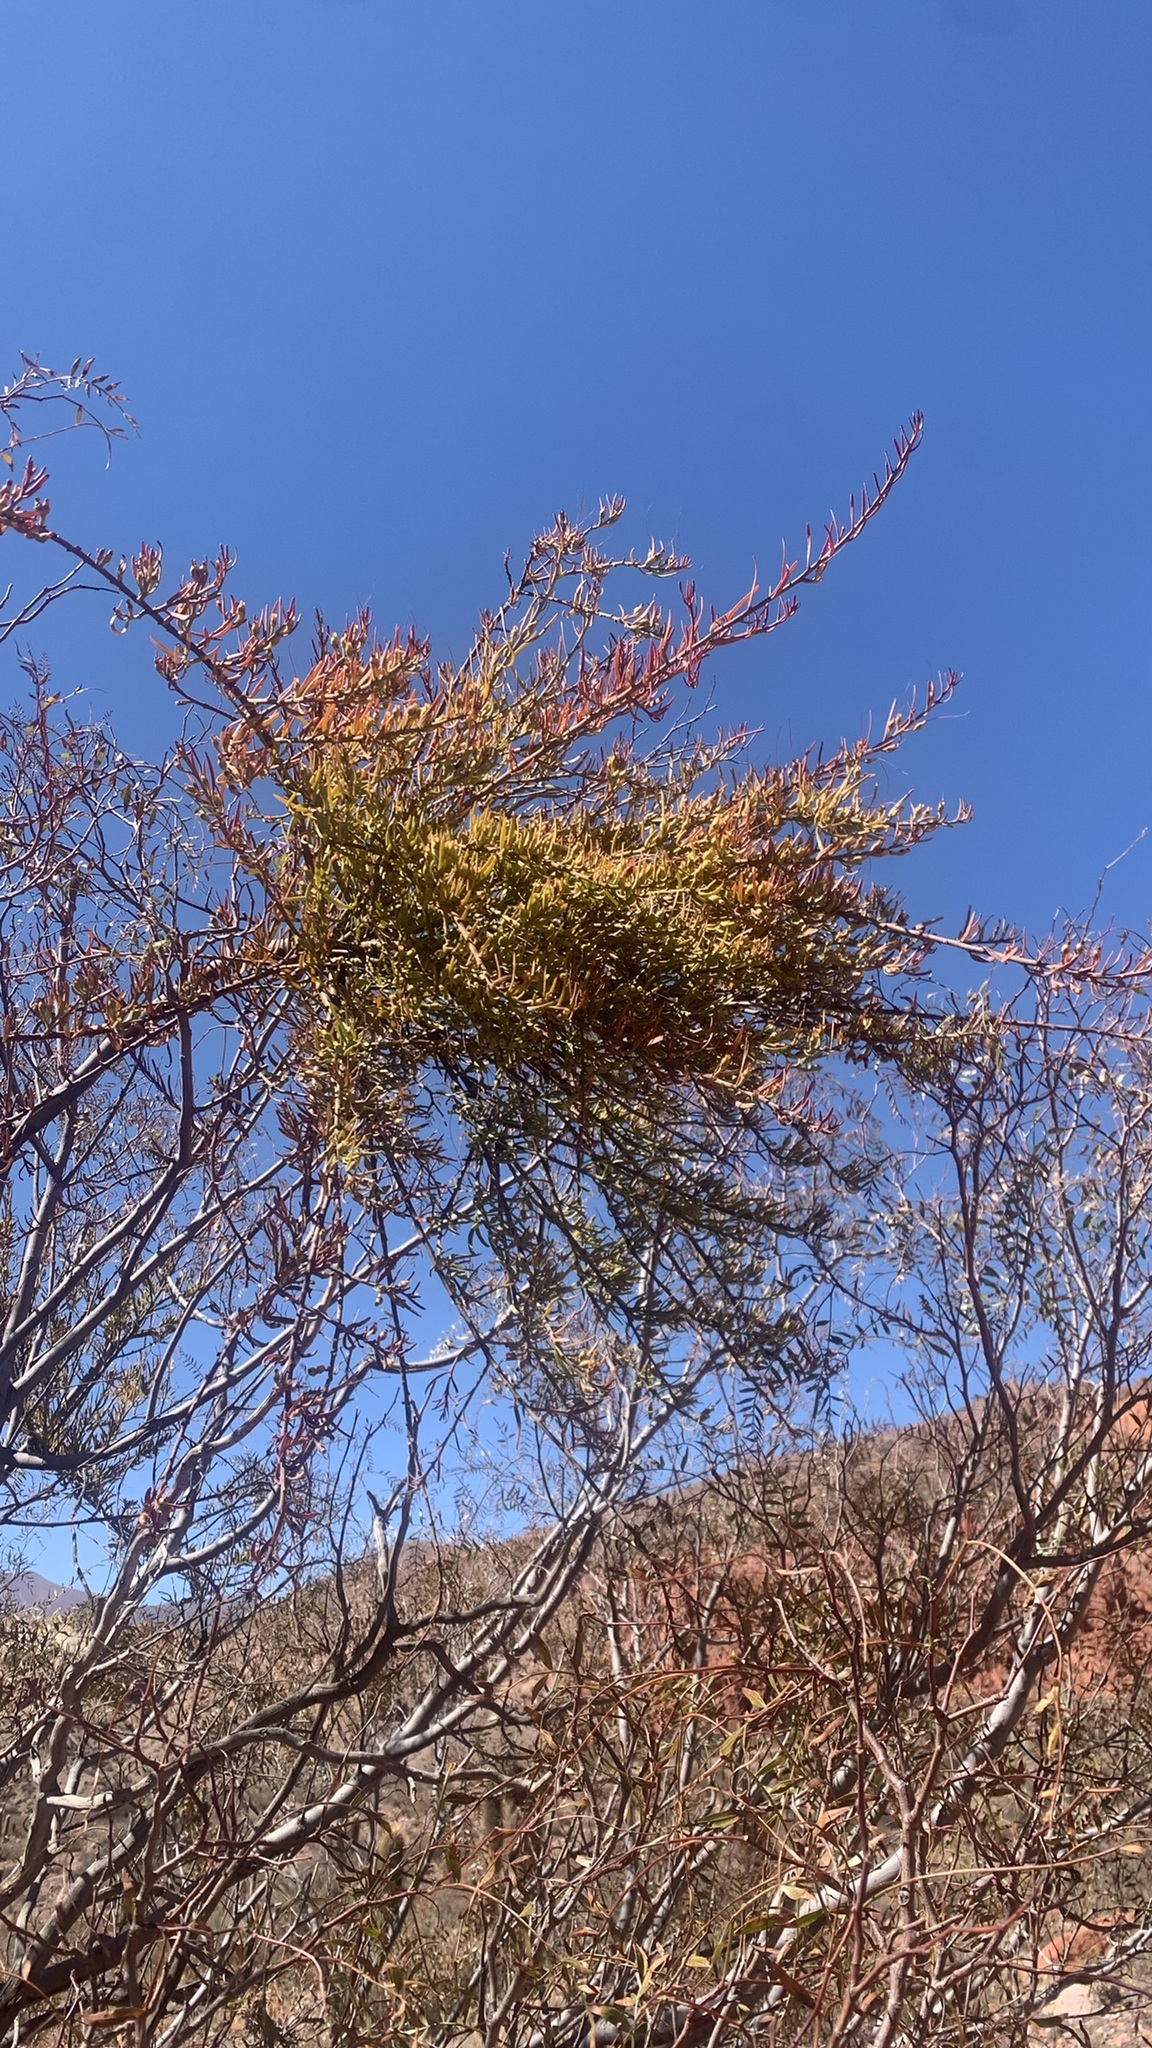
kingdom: Plantae
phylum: Tracheophyta
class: Magnoliopsida
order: Santalales
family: Loranthaceae
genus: Ligaria
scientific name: Ligaria cuneifolia
